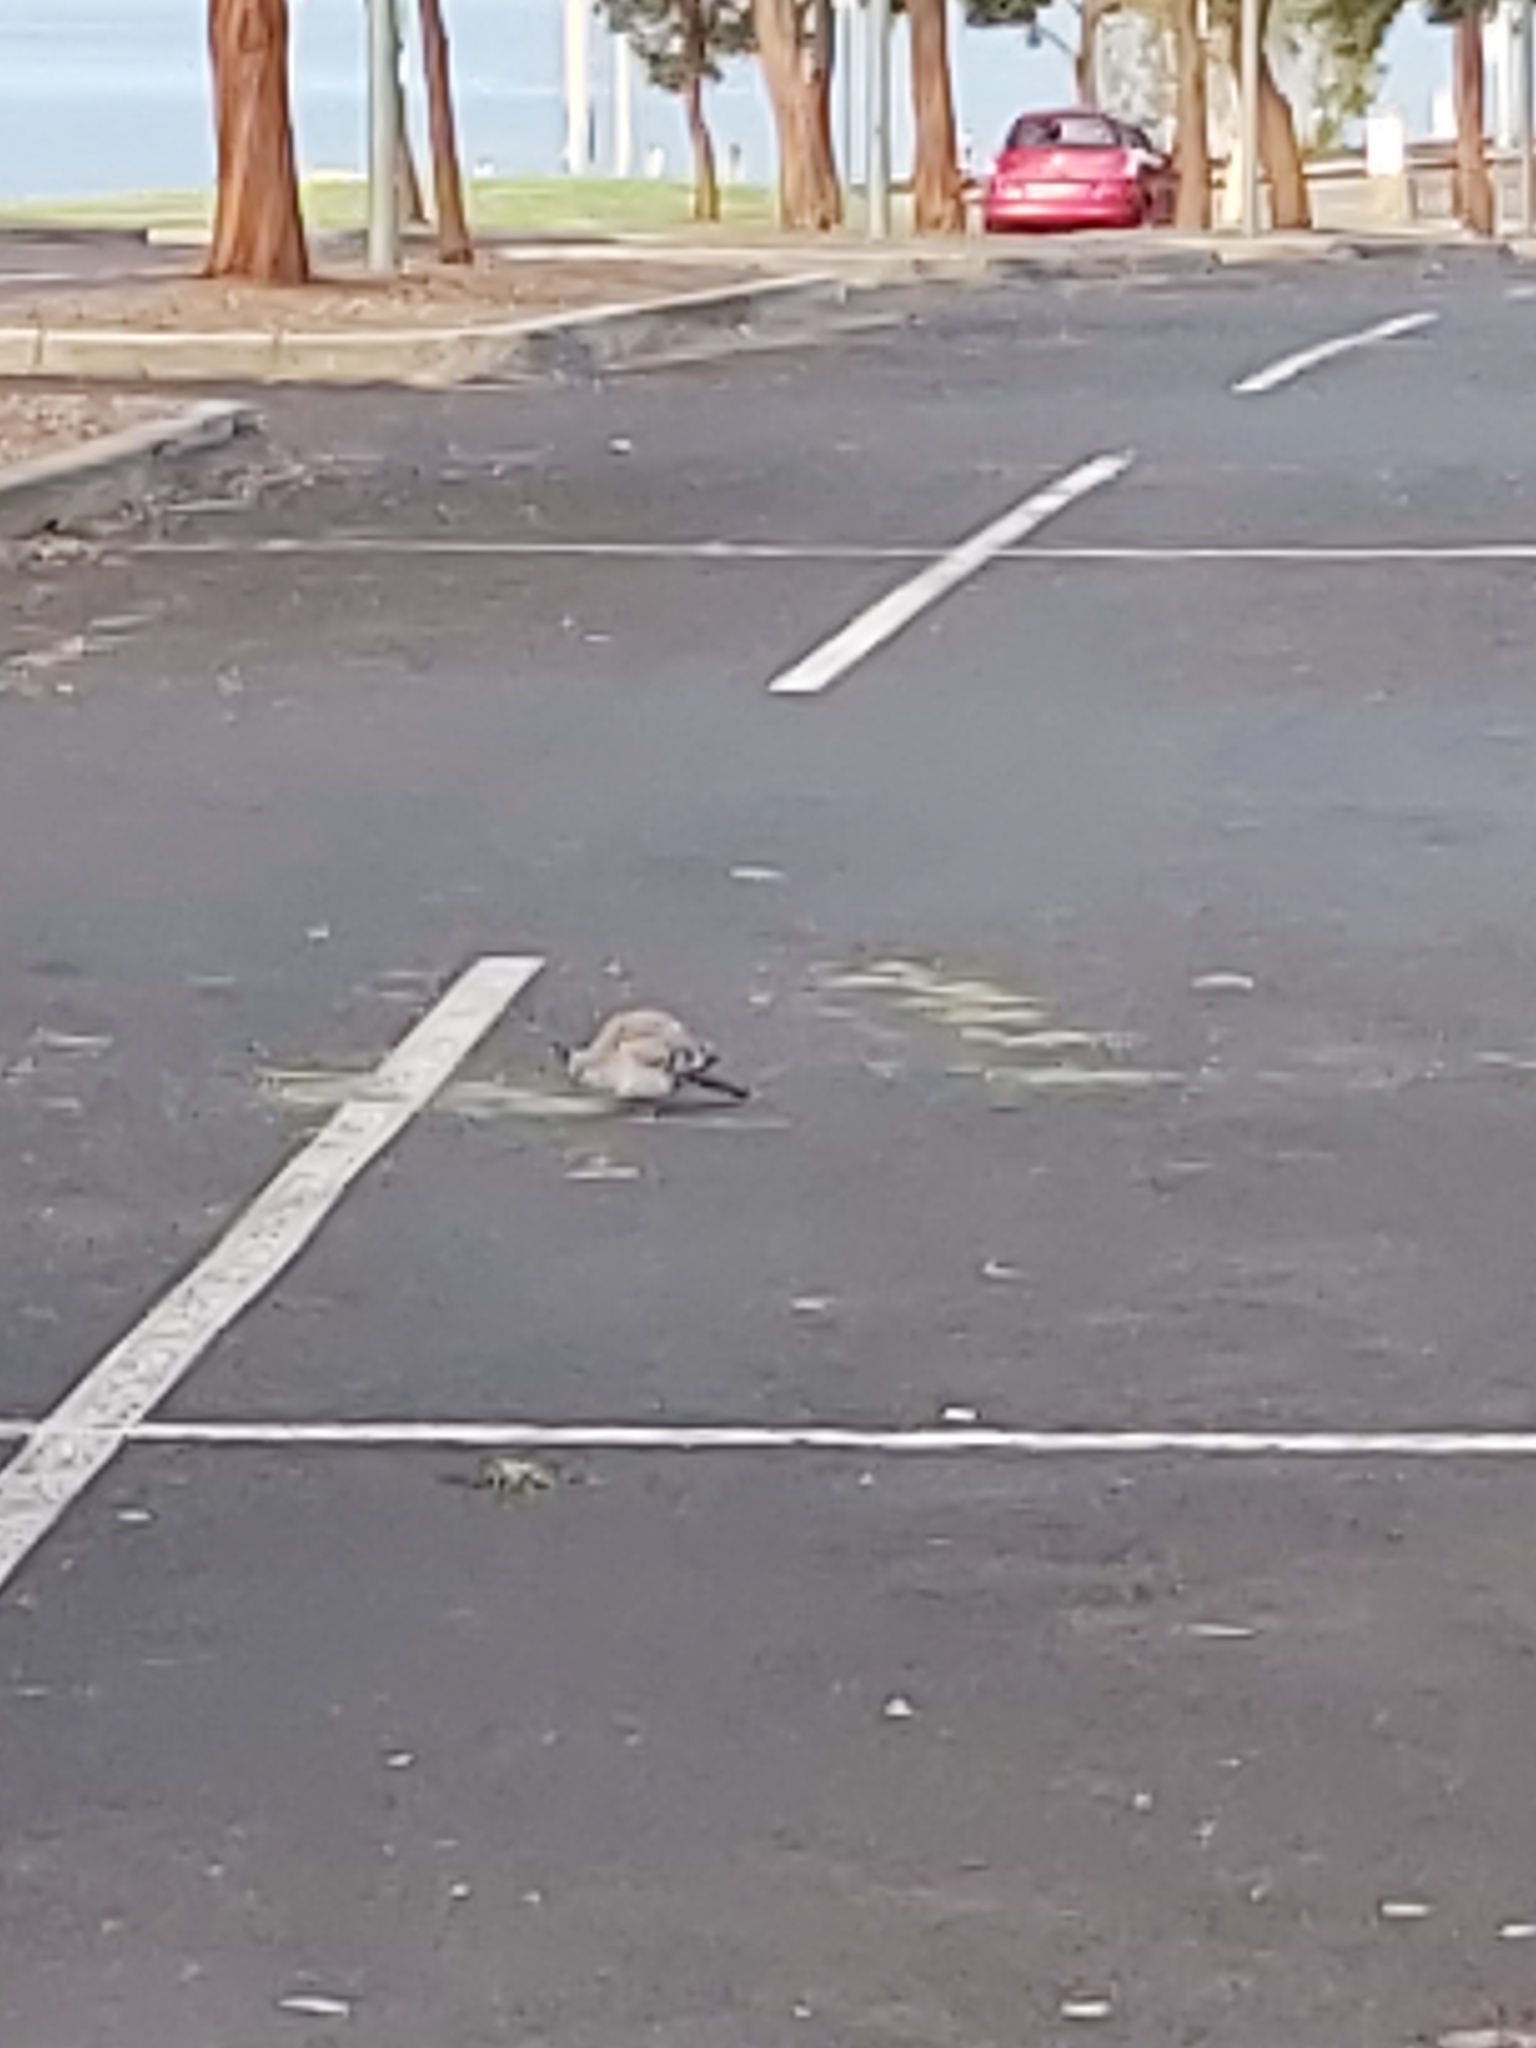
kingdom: Animalia
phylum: Chordata
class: Aves
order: Columbiformes
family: Columbidae
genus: Ocyphaps
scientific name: Ocyphaps lophotes
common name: Crested pigeon
